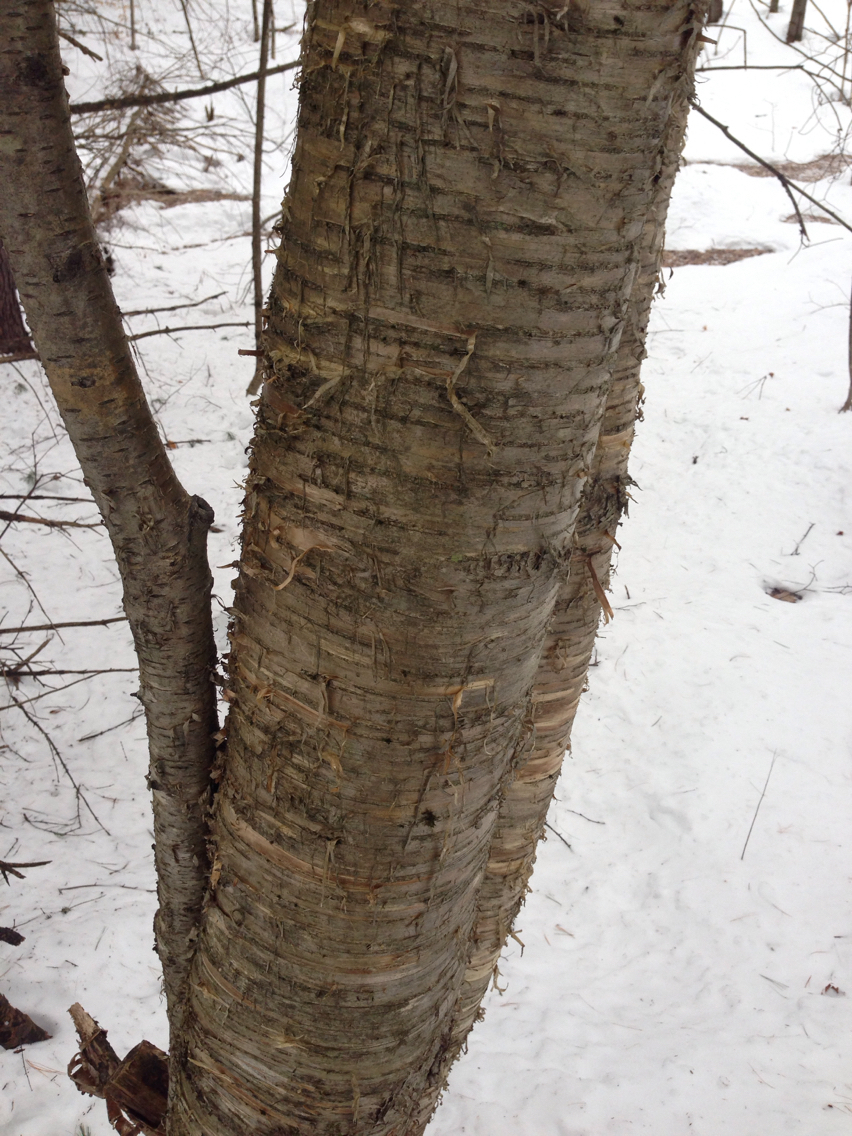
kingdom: Plantae
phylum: Tracheophyta
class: Magnoliopsida
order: Fagales
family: Betulaceae
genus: Betula
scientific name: Betula alleghaniensis
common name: Yellow birch
